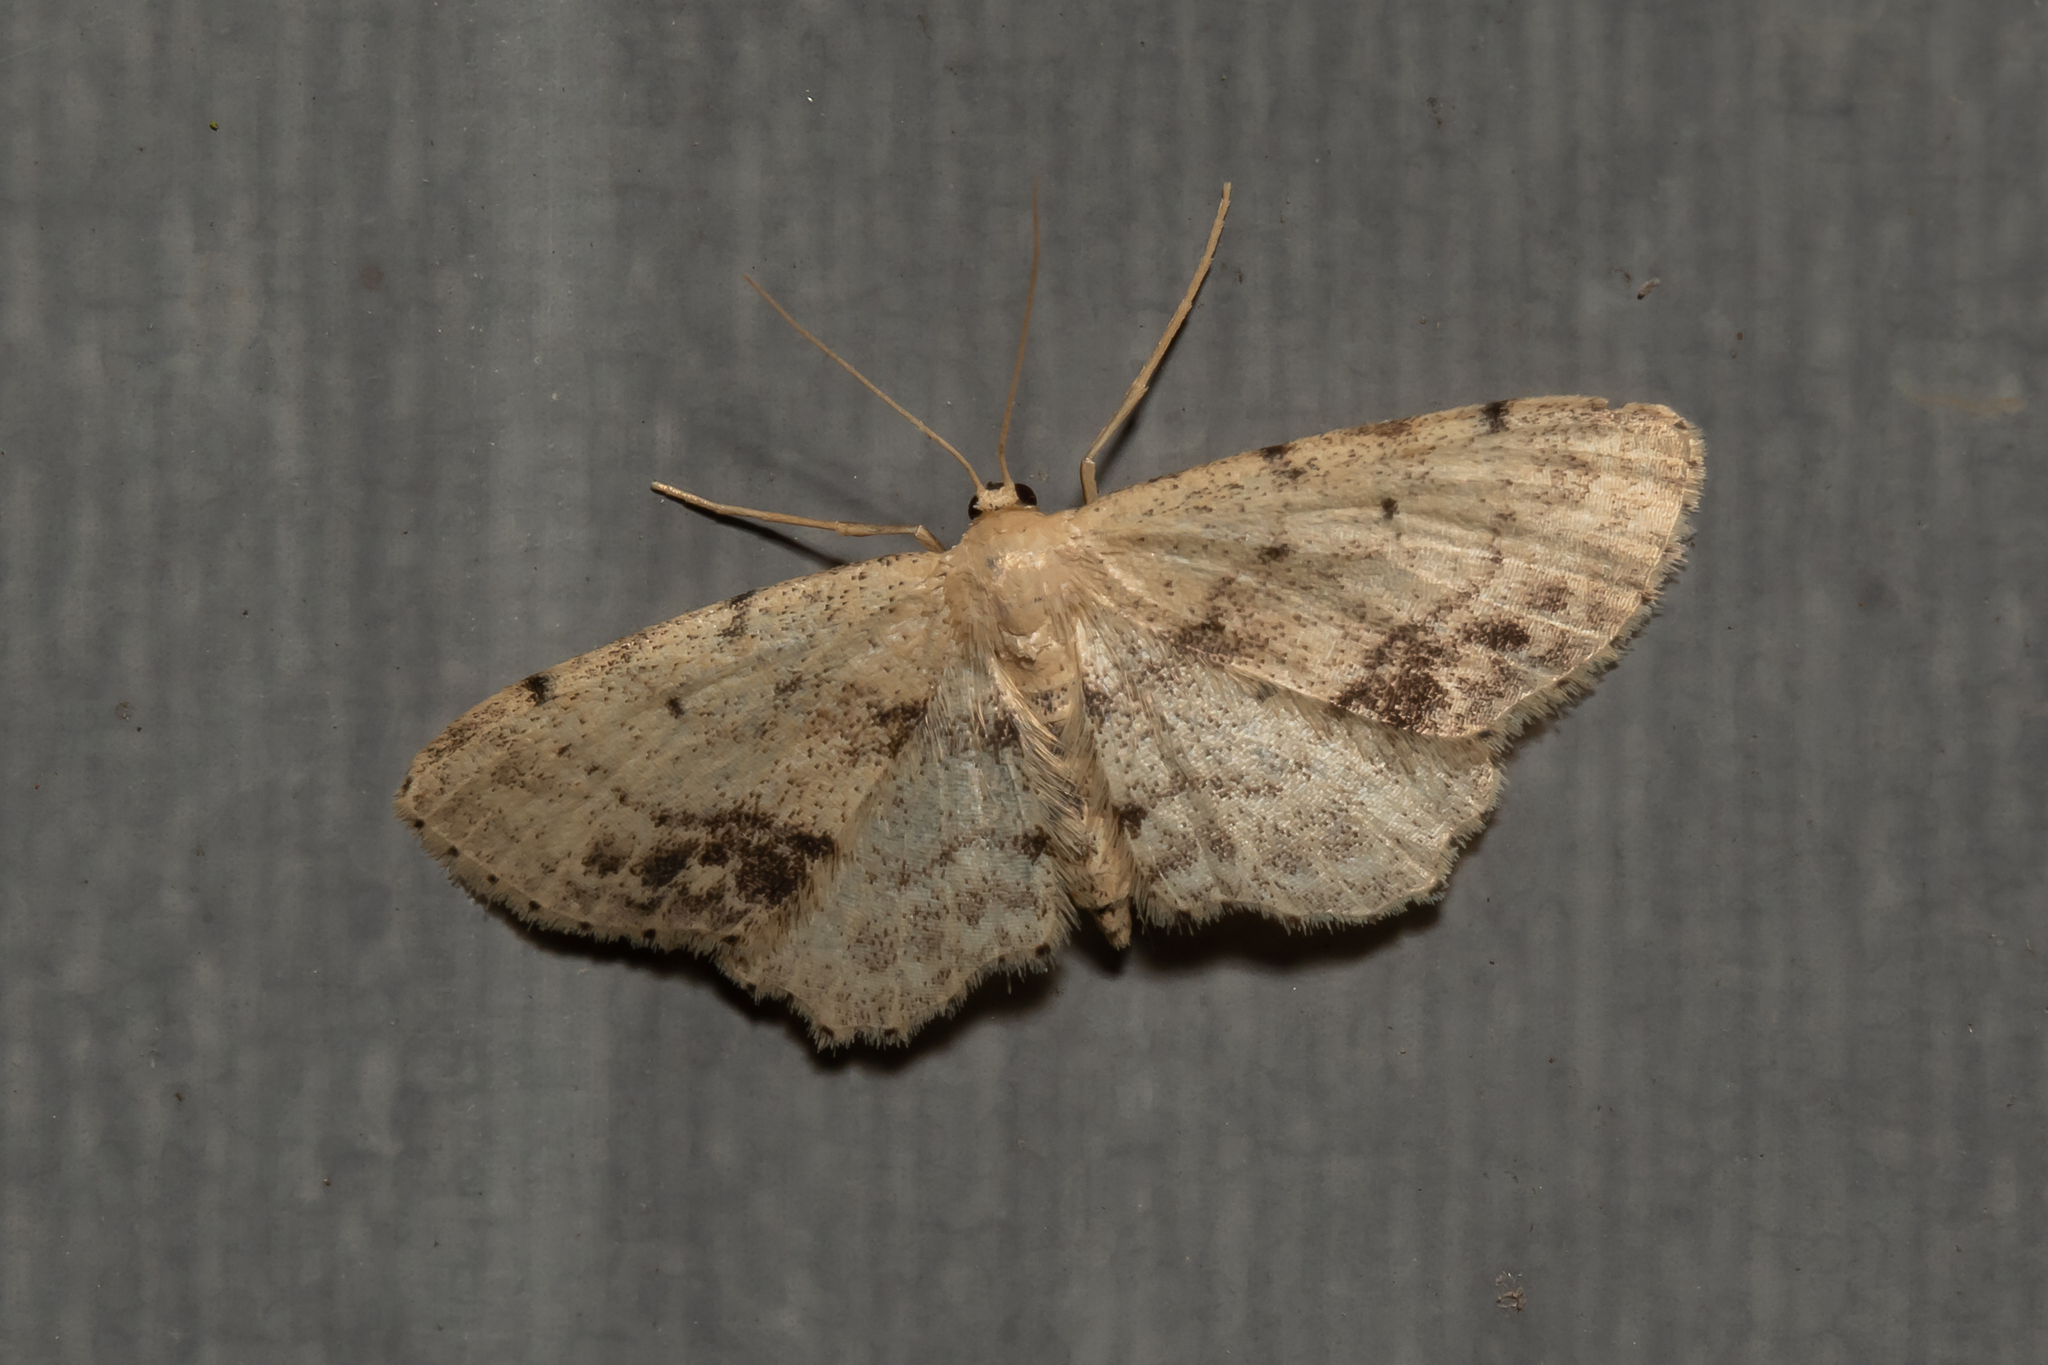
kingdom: Animalia
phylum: Arthropoda
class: Insecta
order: Lepidoptera
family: Geometridae
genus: Idaea
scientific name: Idaea dimidiata
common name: Single-dotted wave
